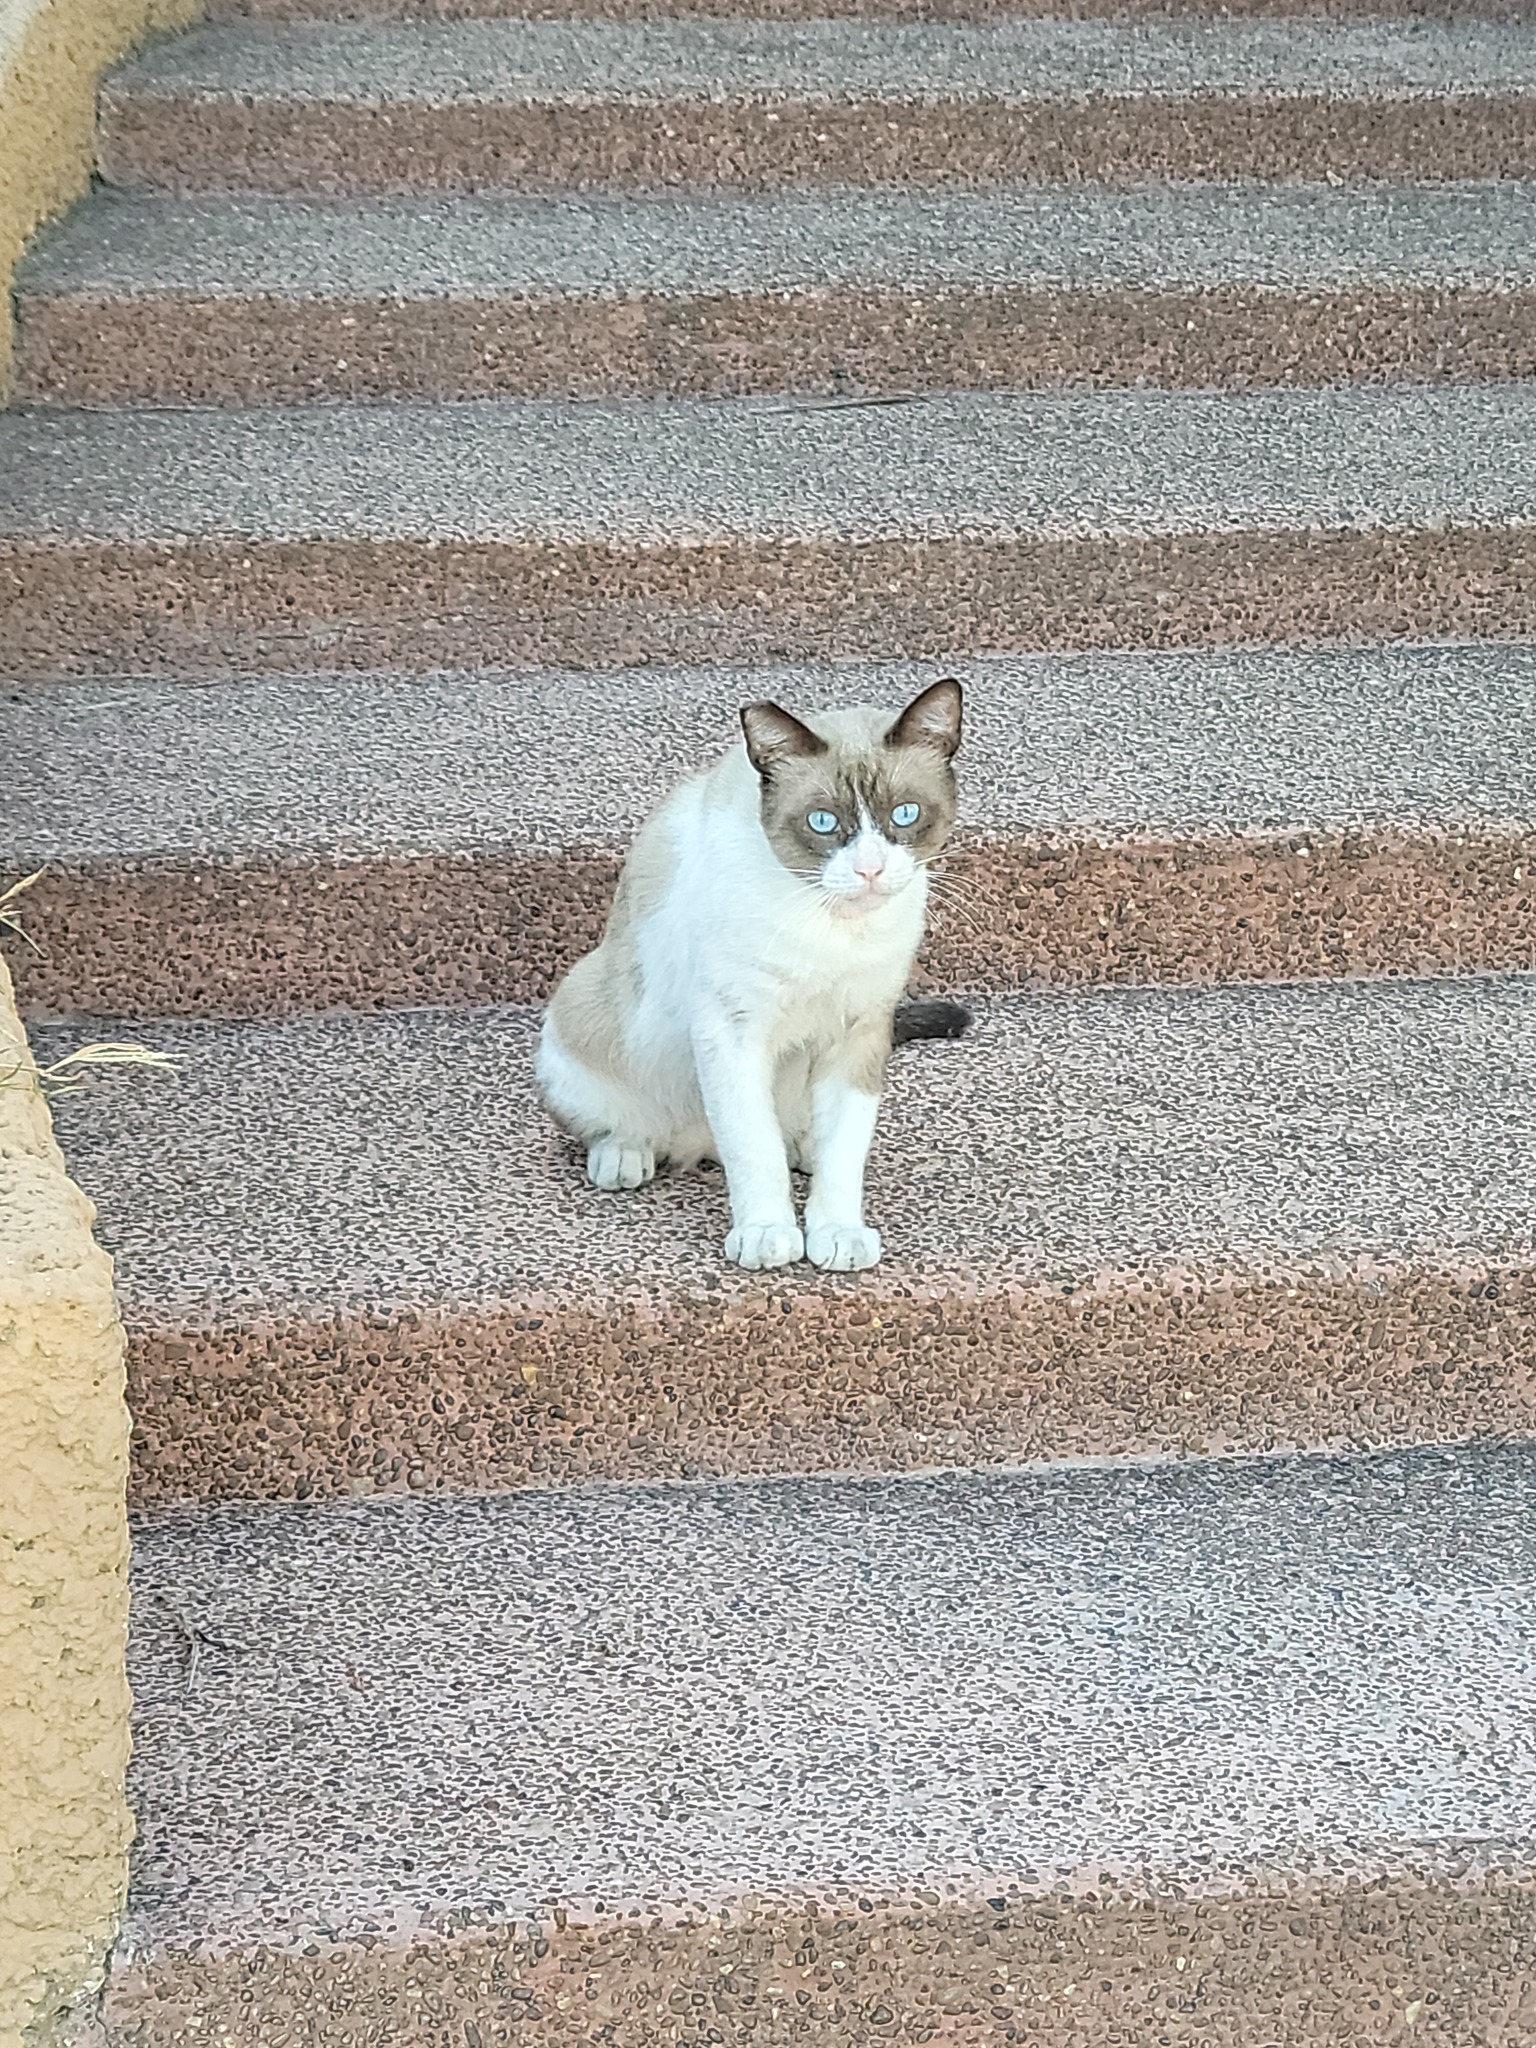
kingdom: Animalia
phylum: Chordata
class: Mammalia
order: Carnivora
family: Felidae
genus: Felis
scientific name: Felis catus
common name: Domestic cat
